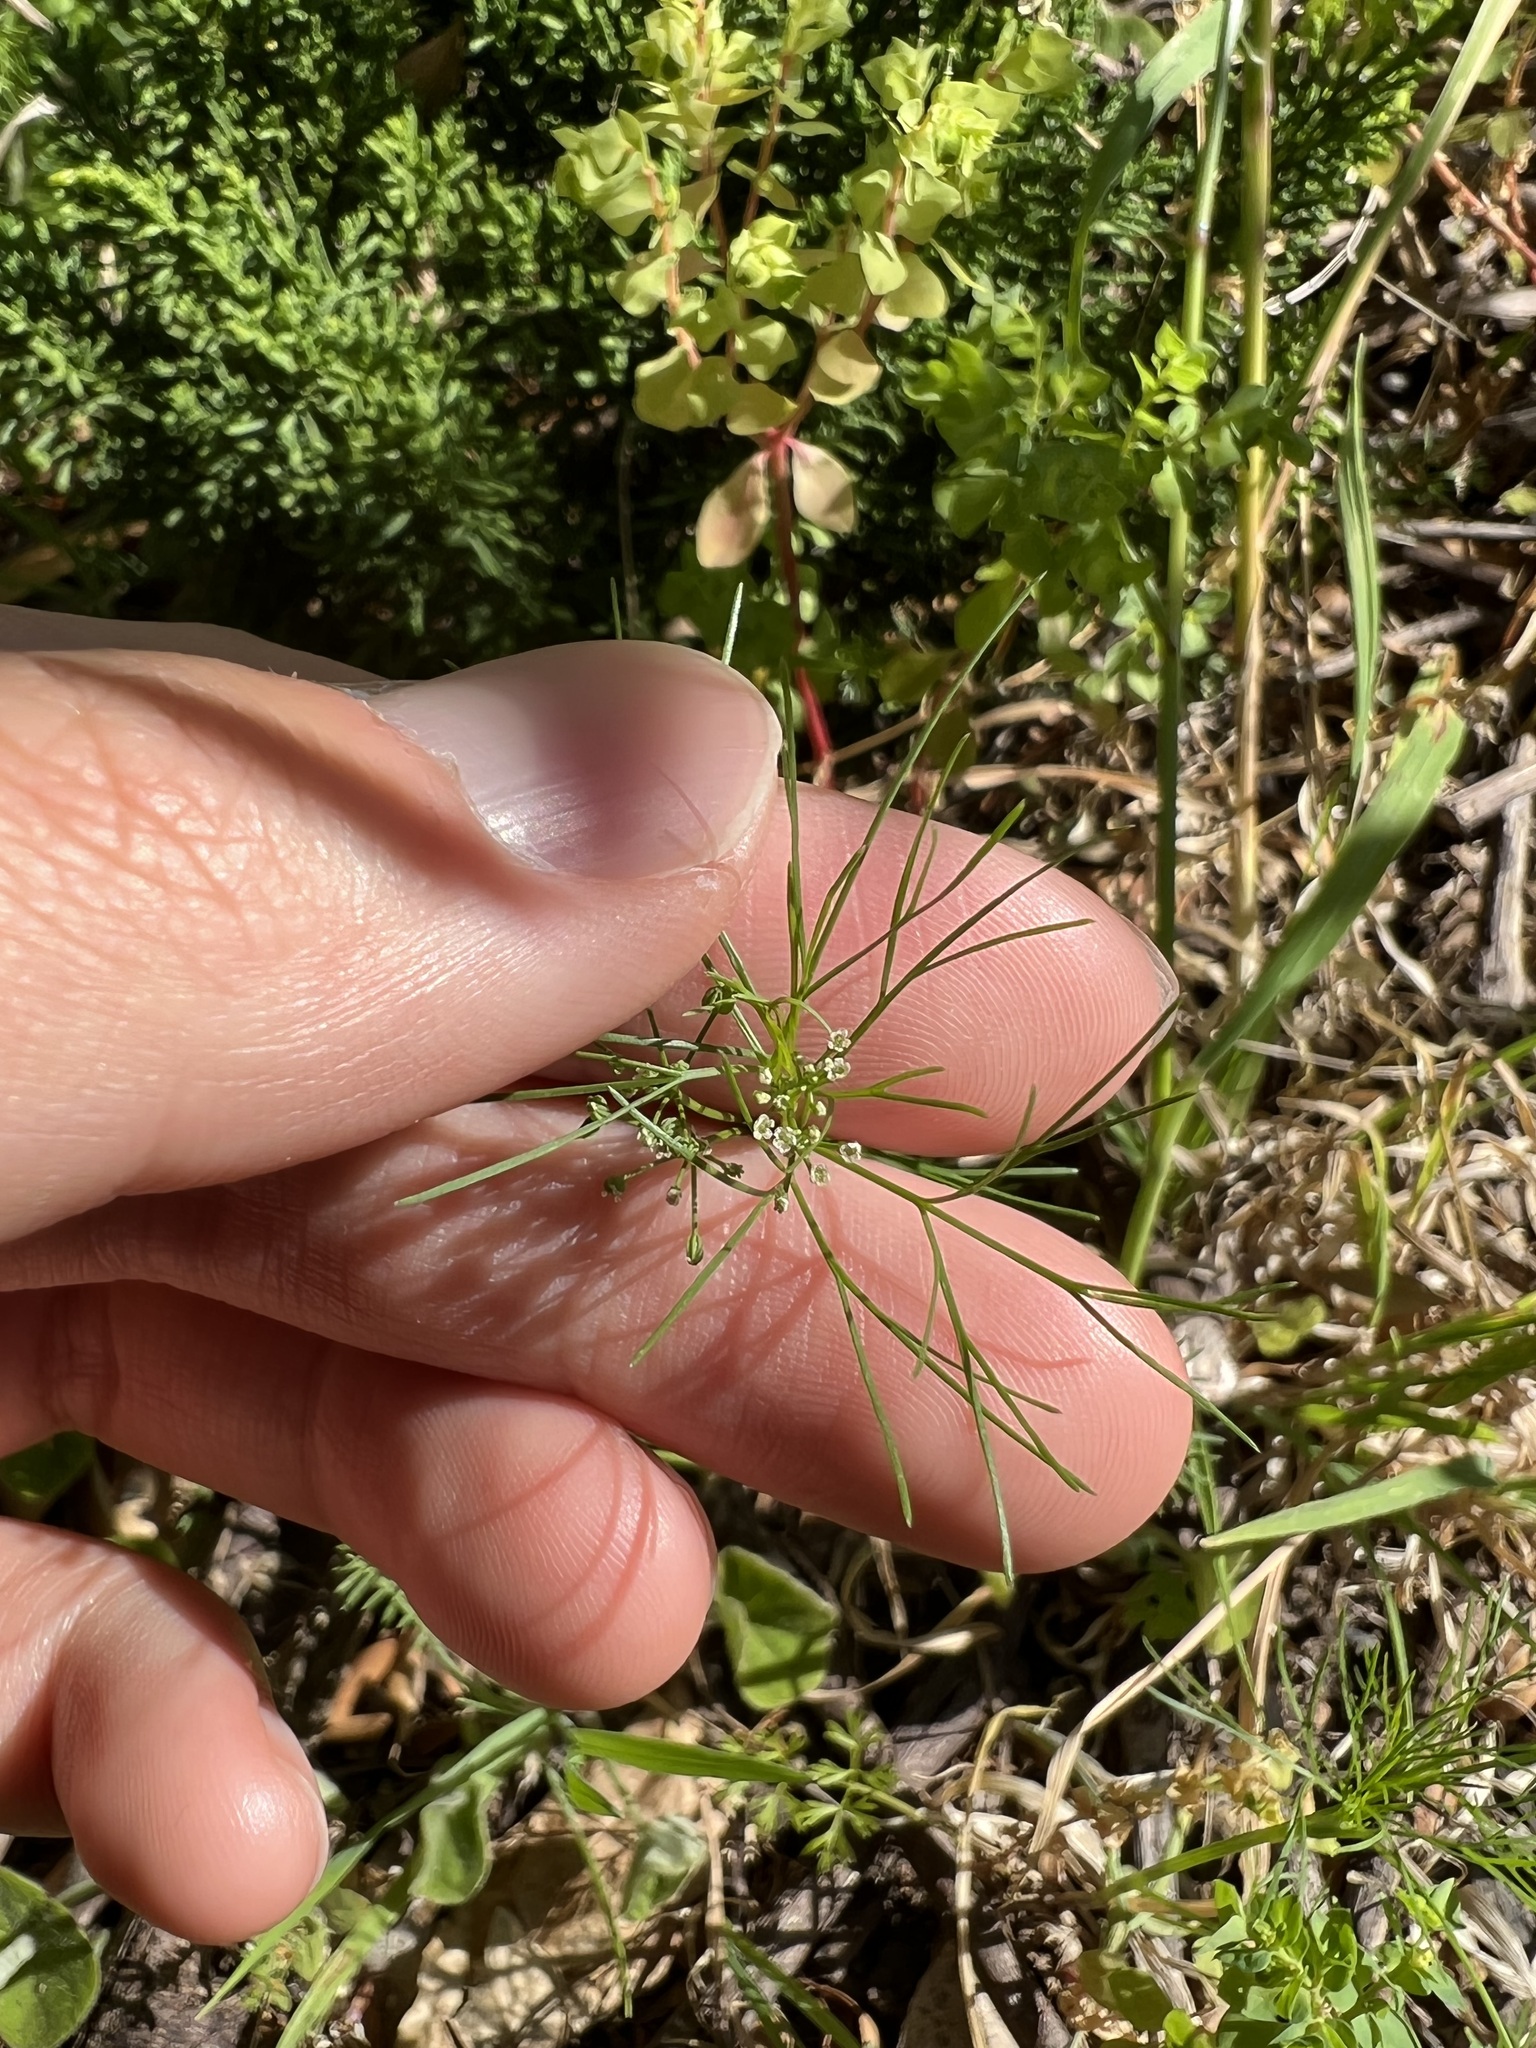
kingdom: Plantae
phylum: Tracheophyta
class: Magnoliopsida
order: Apiales
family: Apiaceae
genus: Cyclospermum
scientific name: Cyclospermum leptophyllum
